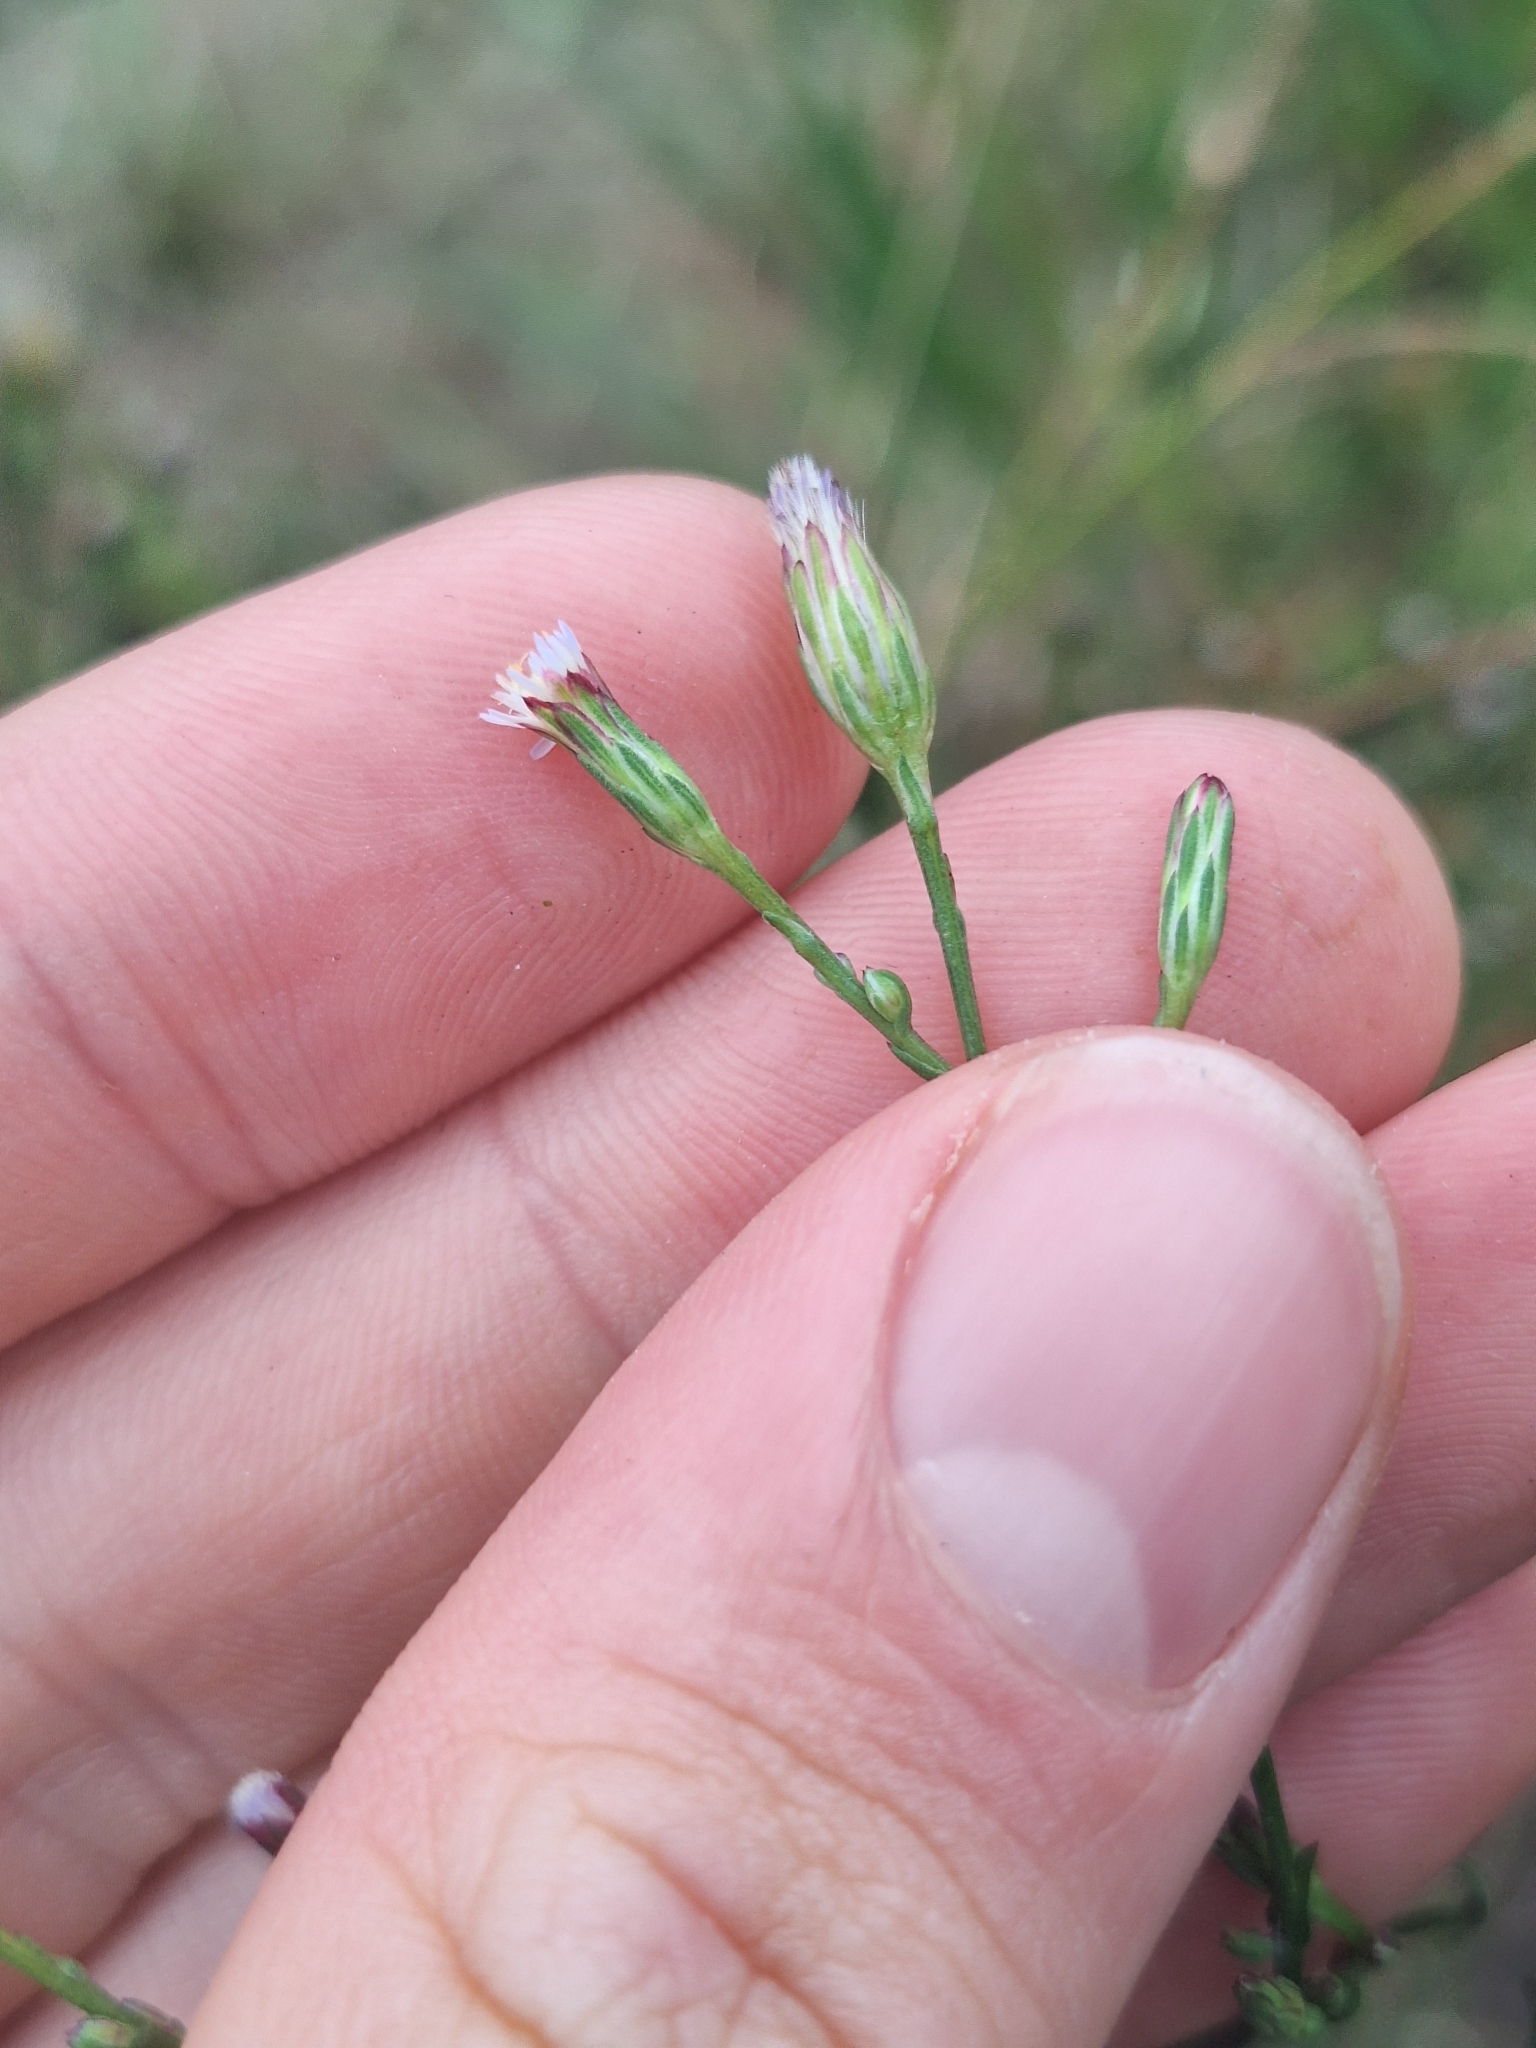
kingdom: Plantae
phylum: Tracheophyta
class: Magnoliopsida
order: Asterales
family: Asteraceae
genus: Symphyotrichum
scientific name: Symphyotrichum subulatum
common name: Annual saltmarsh aster
